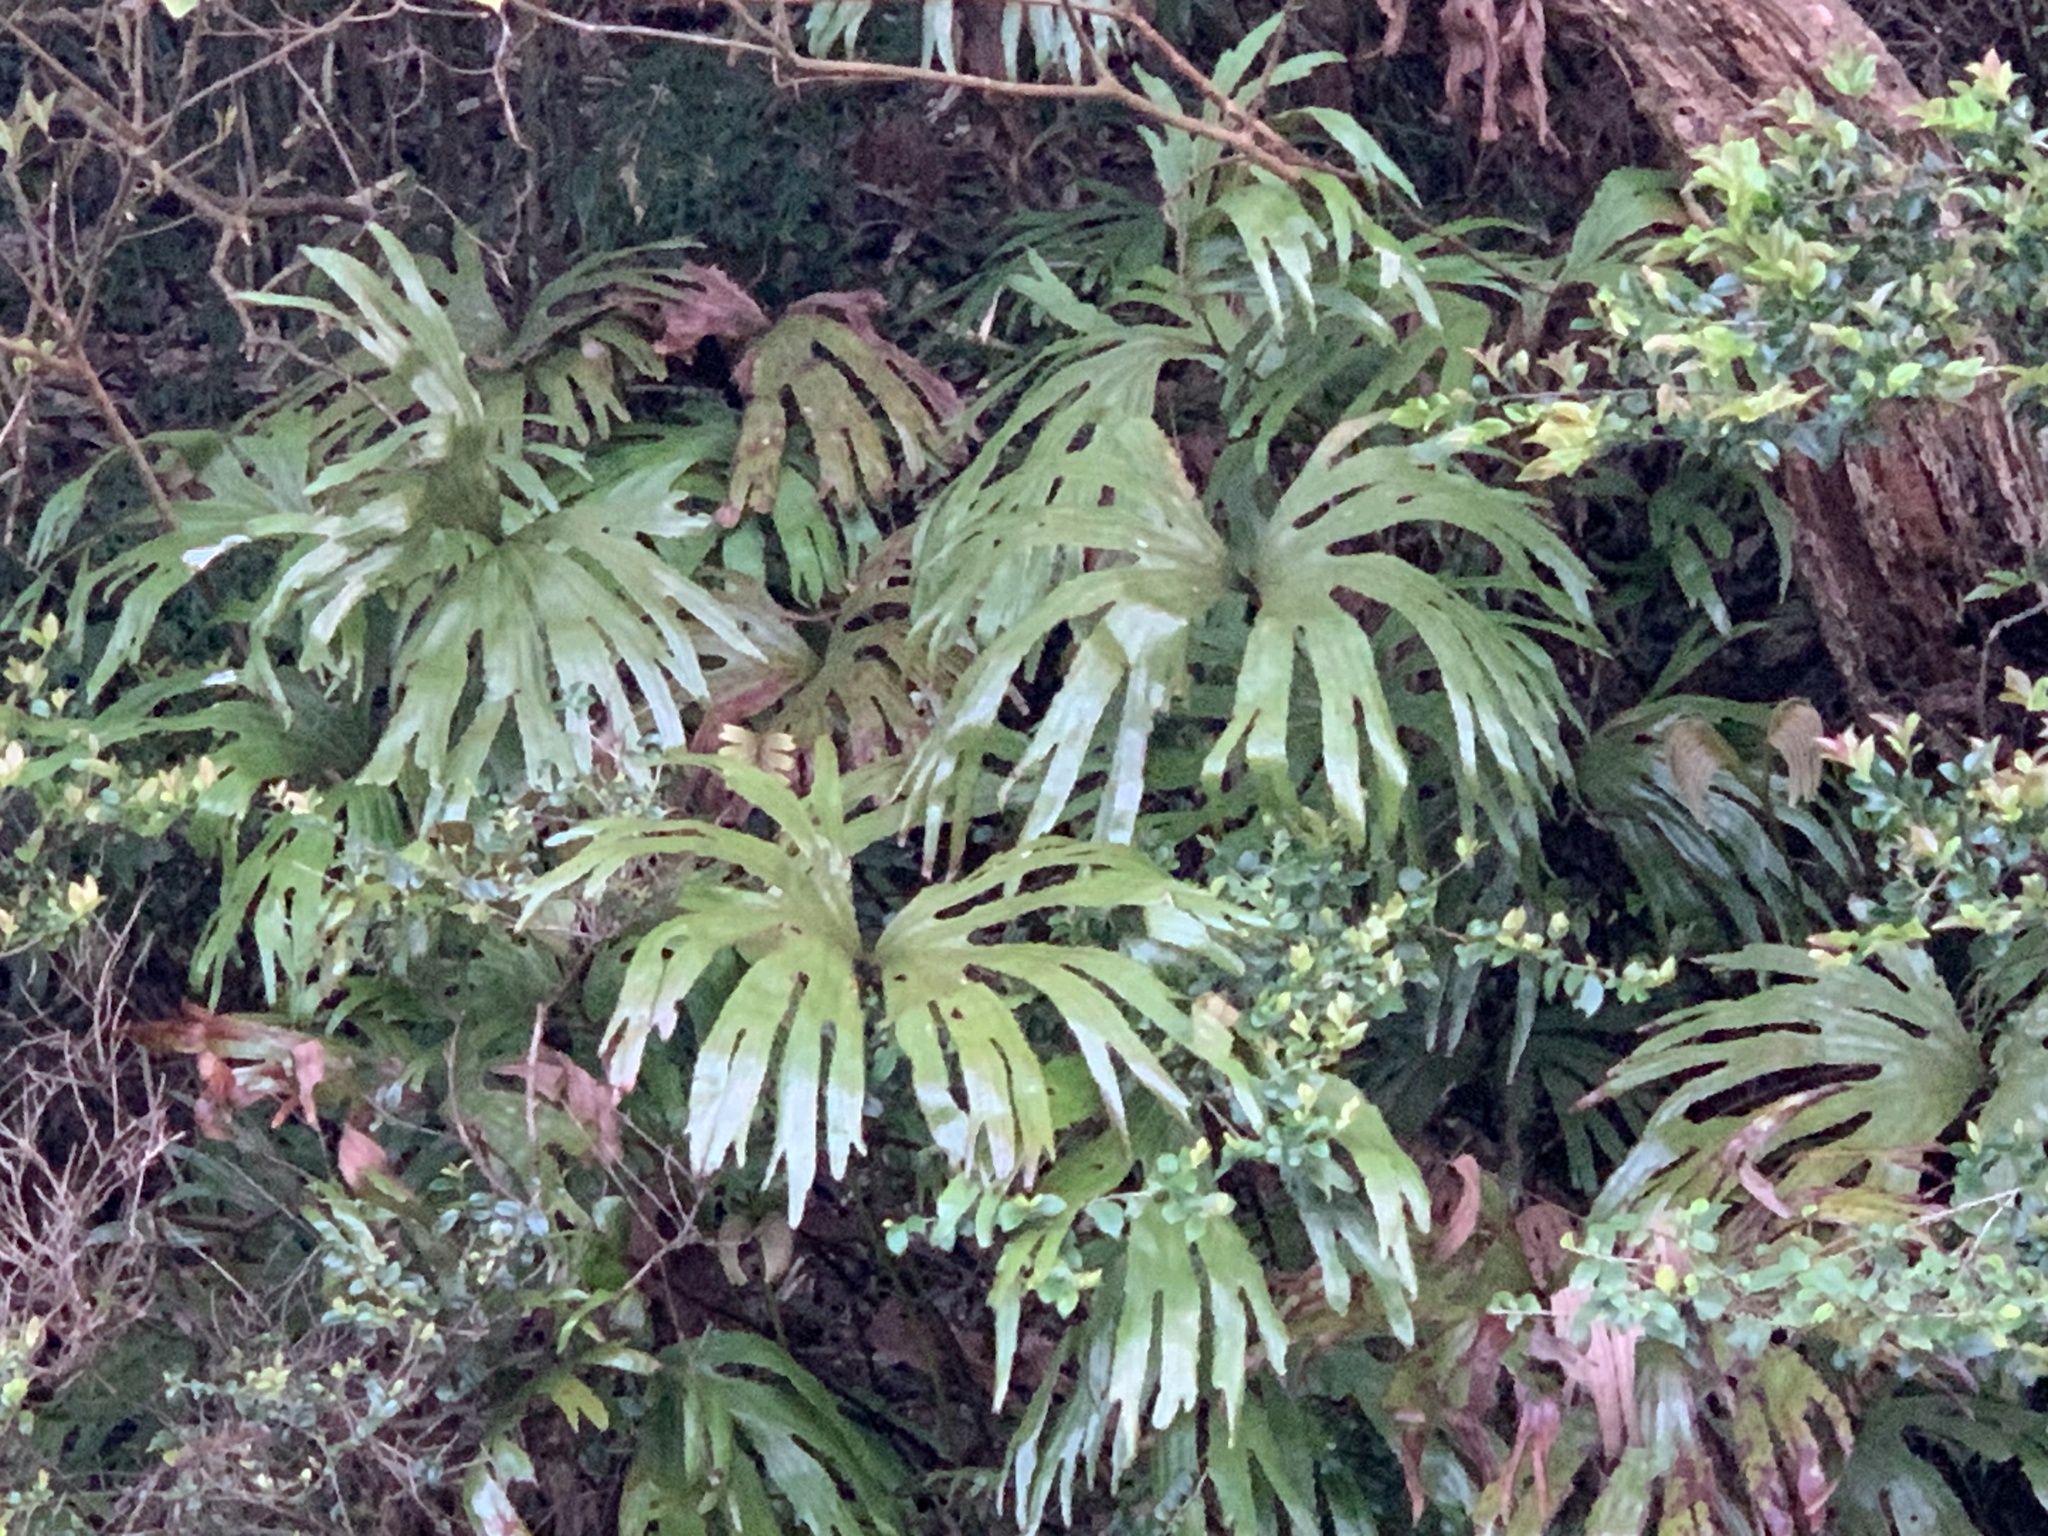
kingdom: Plantae
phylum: Tracheophyta
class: Polypodiopsida
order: Gleicheniales
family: Dipteridaceae
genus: Dipteris
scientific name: Dipteris conjugata
